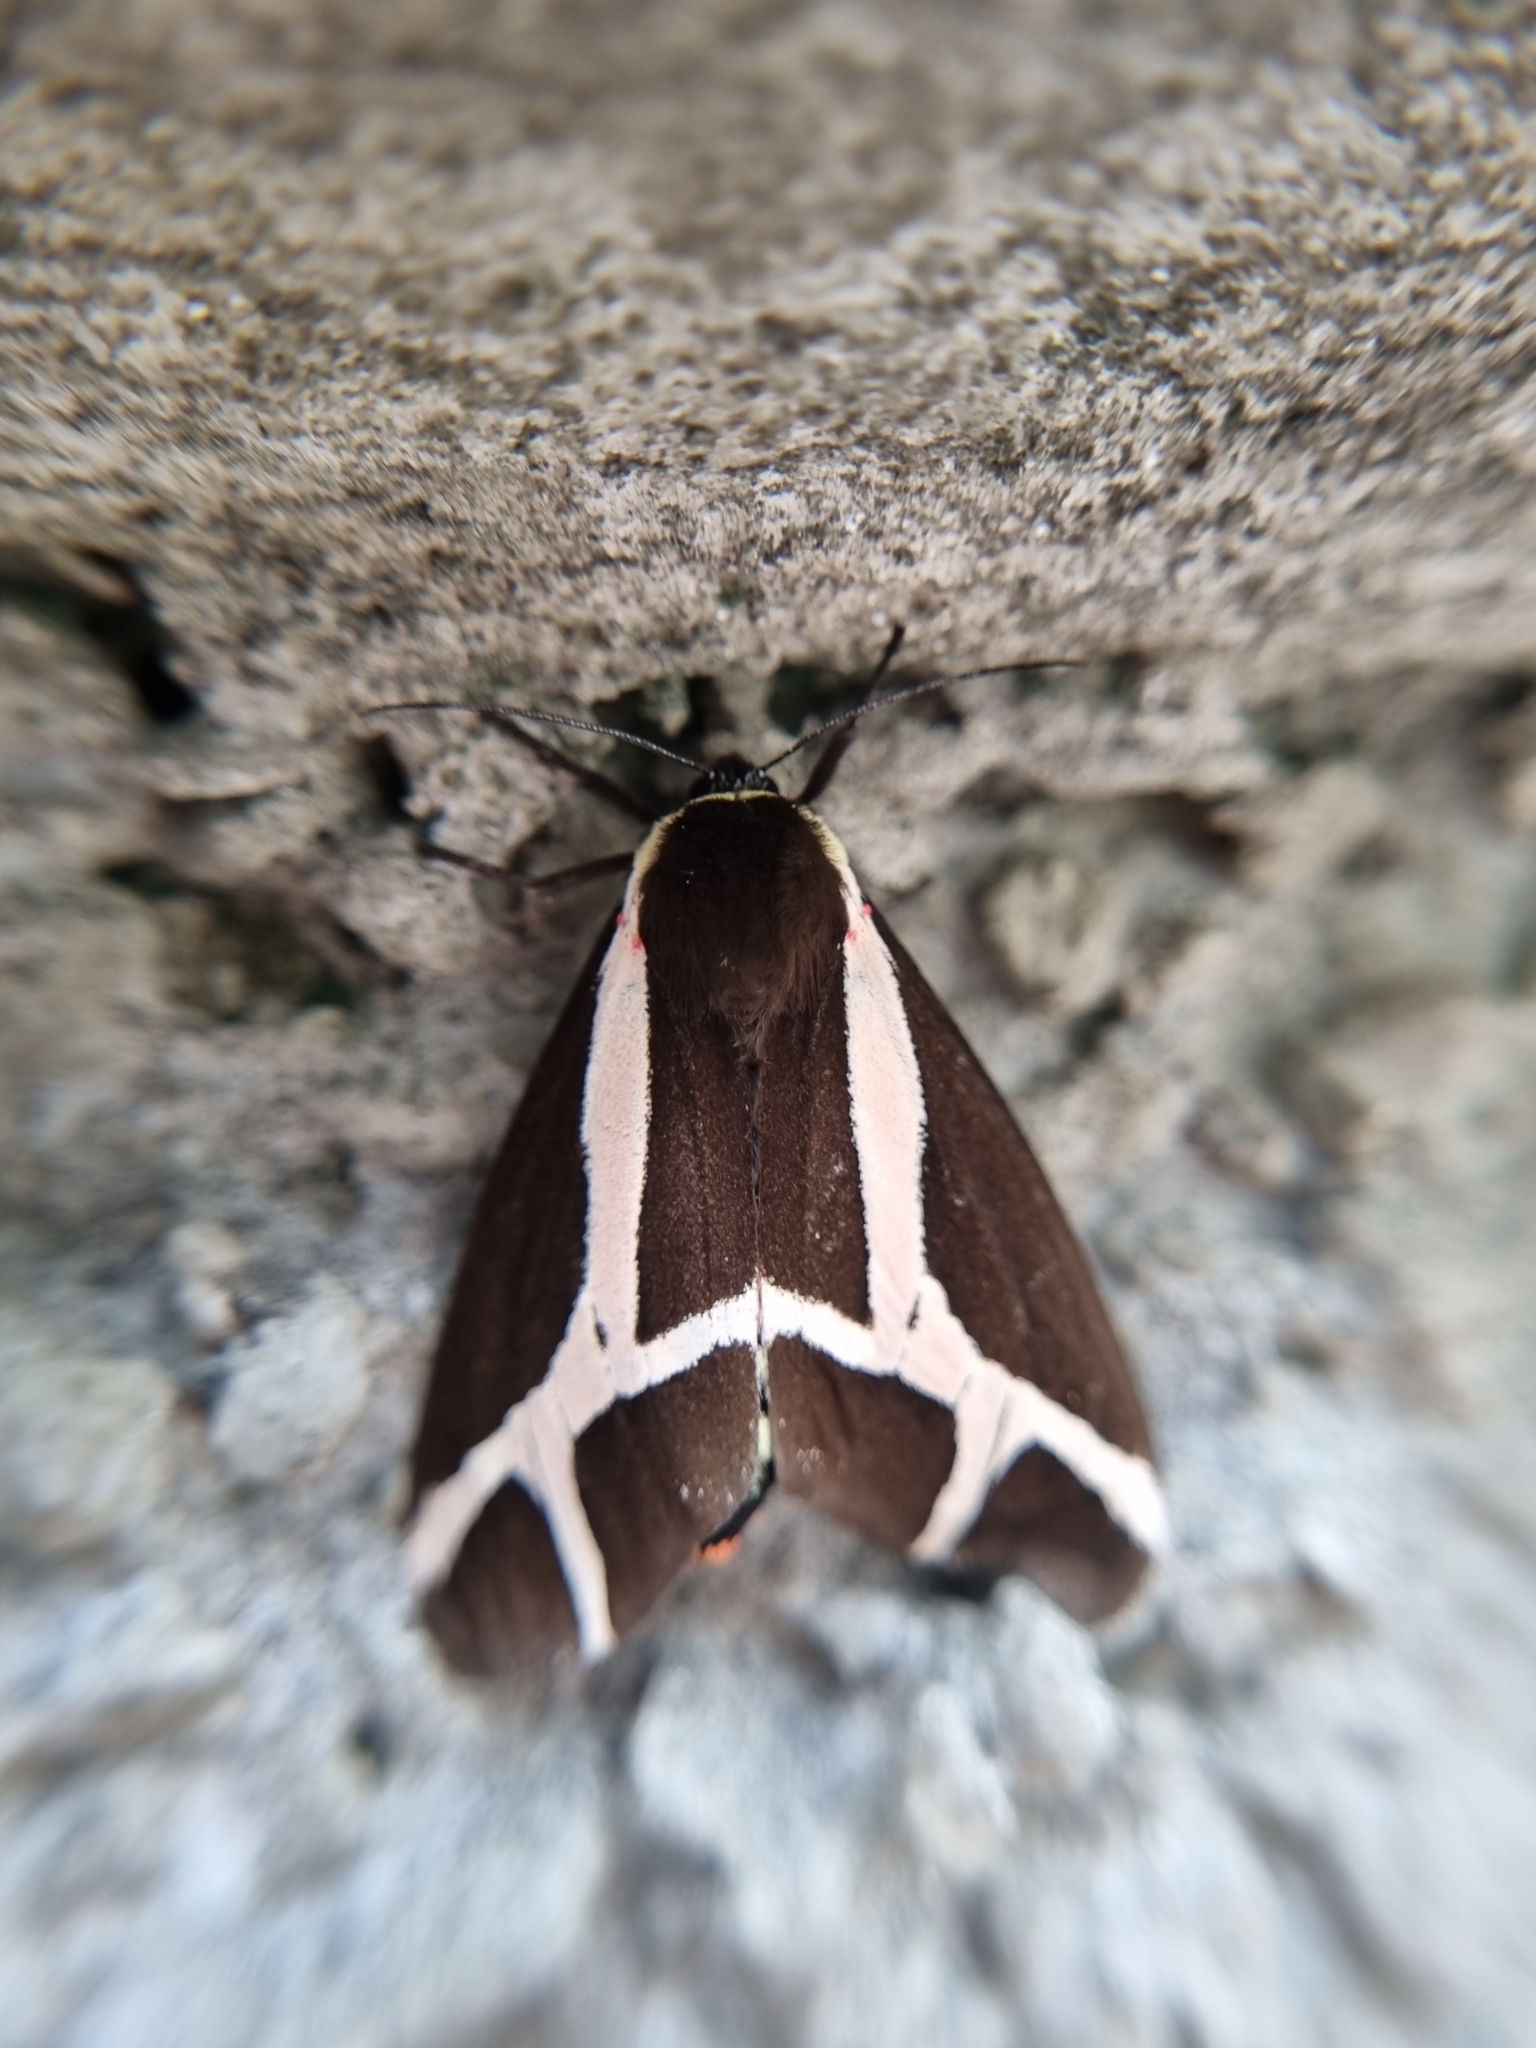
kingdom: Animalia
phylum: Arthropoda
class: Insecta
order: Lepidoptera
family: Erebidae
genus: Dysschema
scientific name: Dysschema sacrifica
